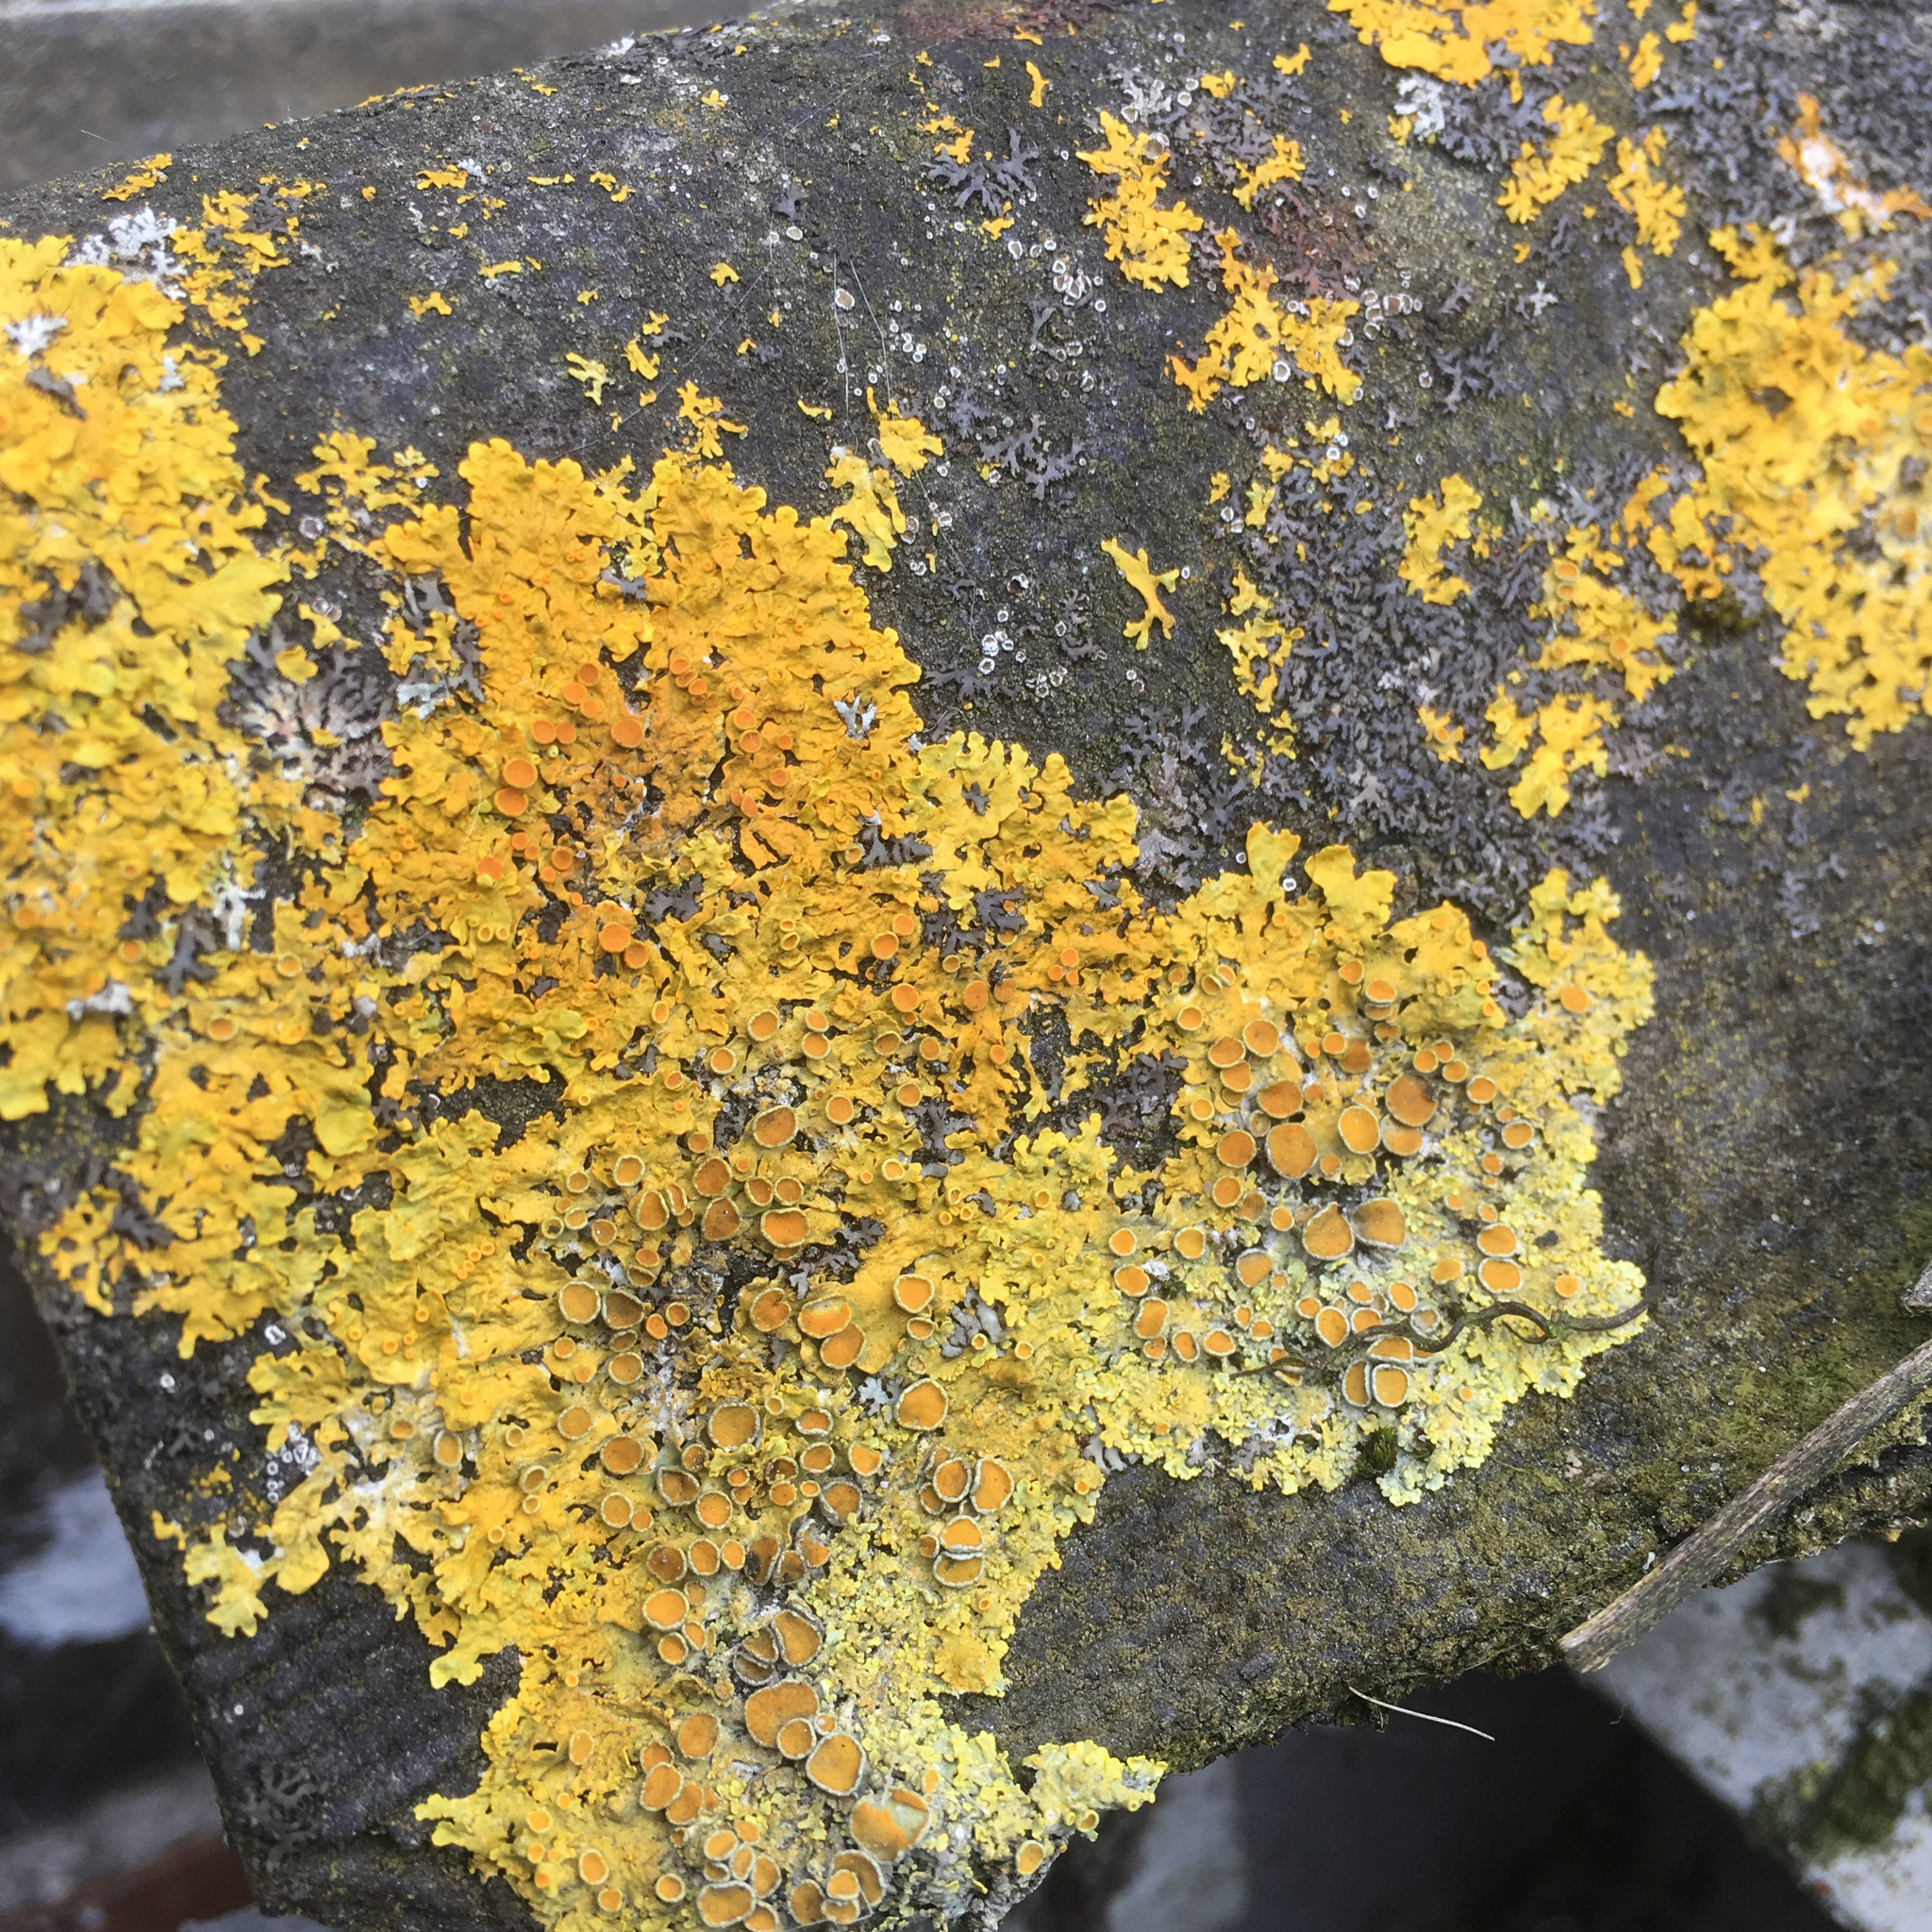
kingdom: Fungi
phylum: Ascomycota
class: Lecanoromycetes
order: Teloschistales
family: Teloschistaceae
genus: Xanthoria
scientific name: Xanthoria parietina
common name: Common orange lichen
